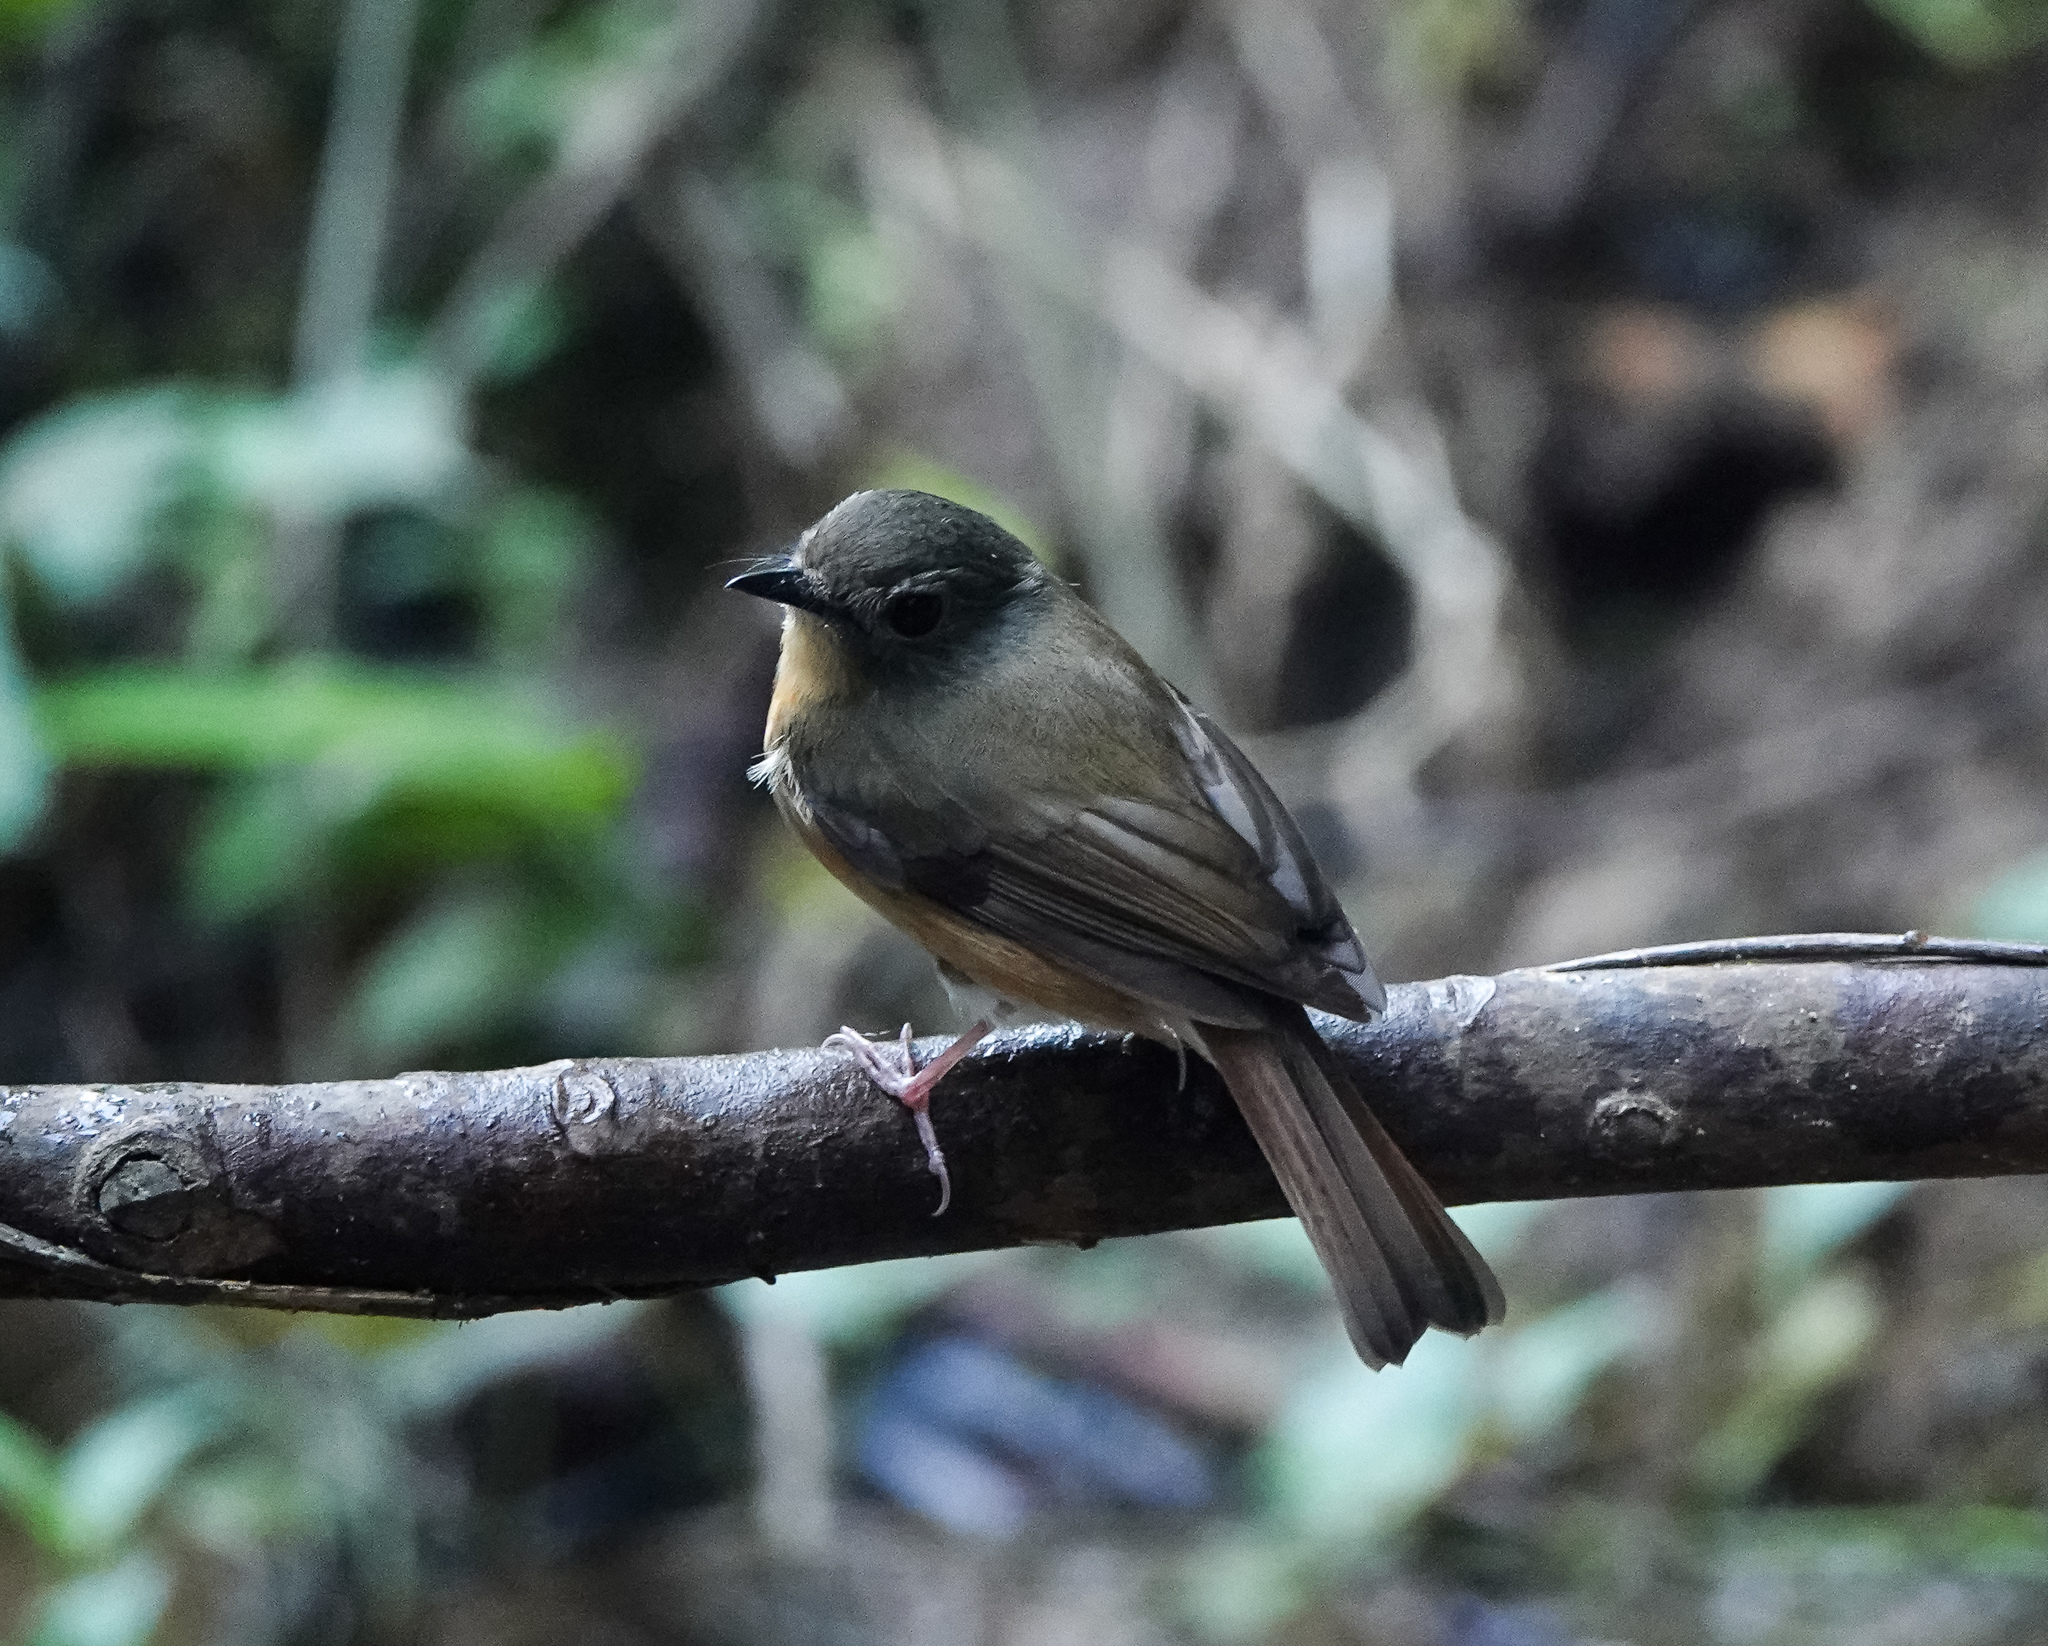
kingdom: Animalia
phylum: Chordata
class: Aves
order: Passeriformes
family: Muscicapidae
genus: Cyornis
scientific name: Cyornis poliogenys
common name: Pale-chinned blue flycatcher
